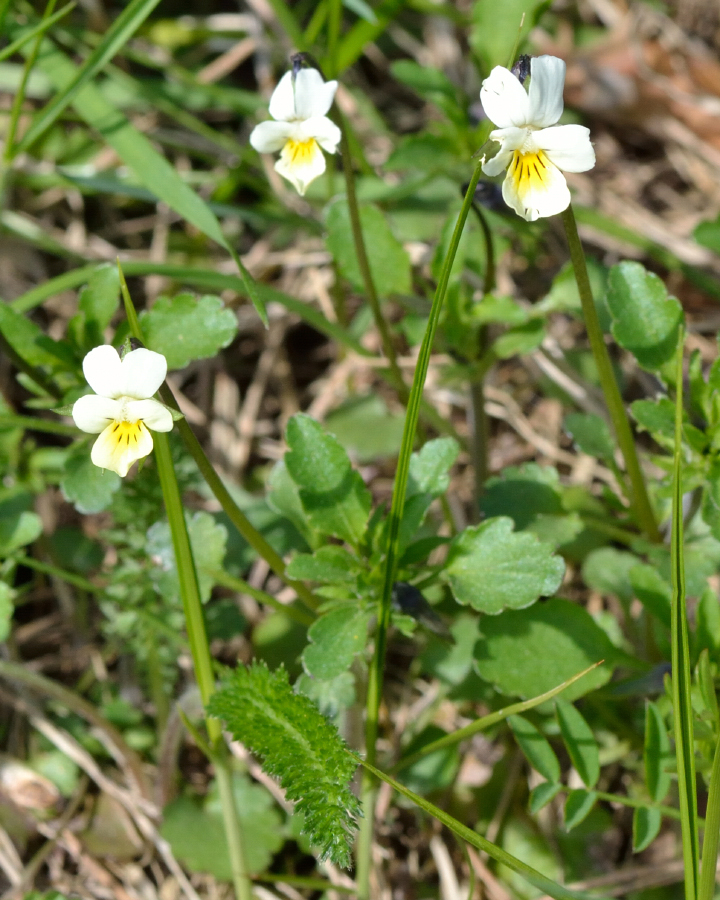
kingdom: Plantae
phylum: Tracheophyta
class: Magnoliopsida
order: Malpighiales
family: Violaceae
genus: Viola
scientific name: Viola arvensis
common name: Field pansy
